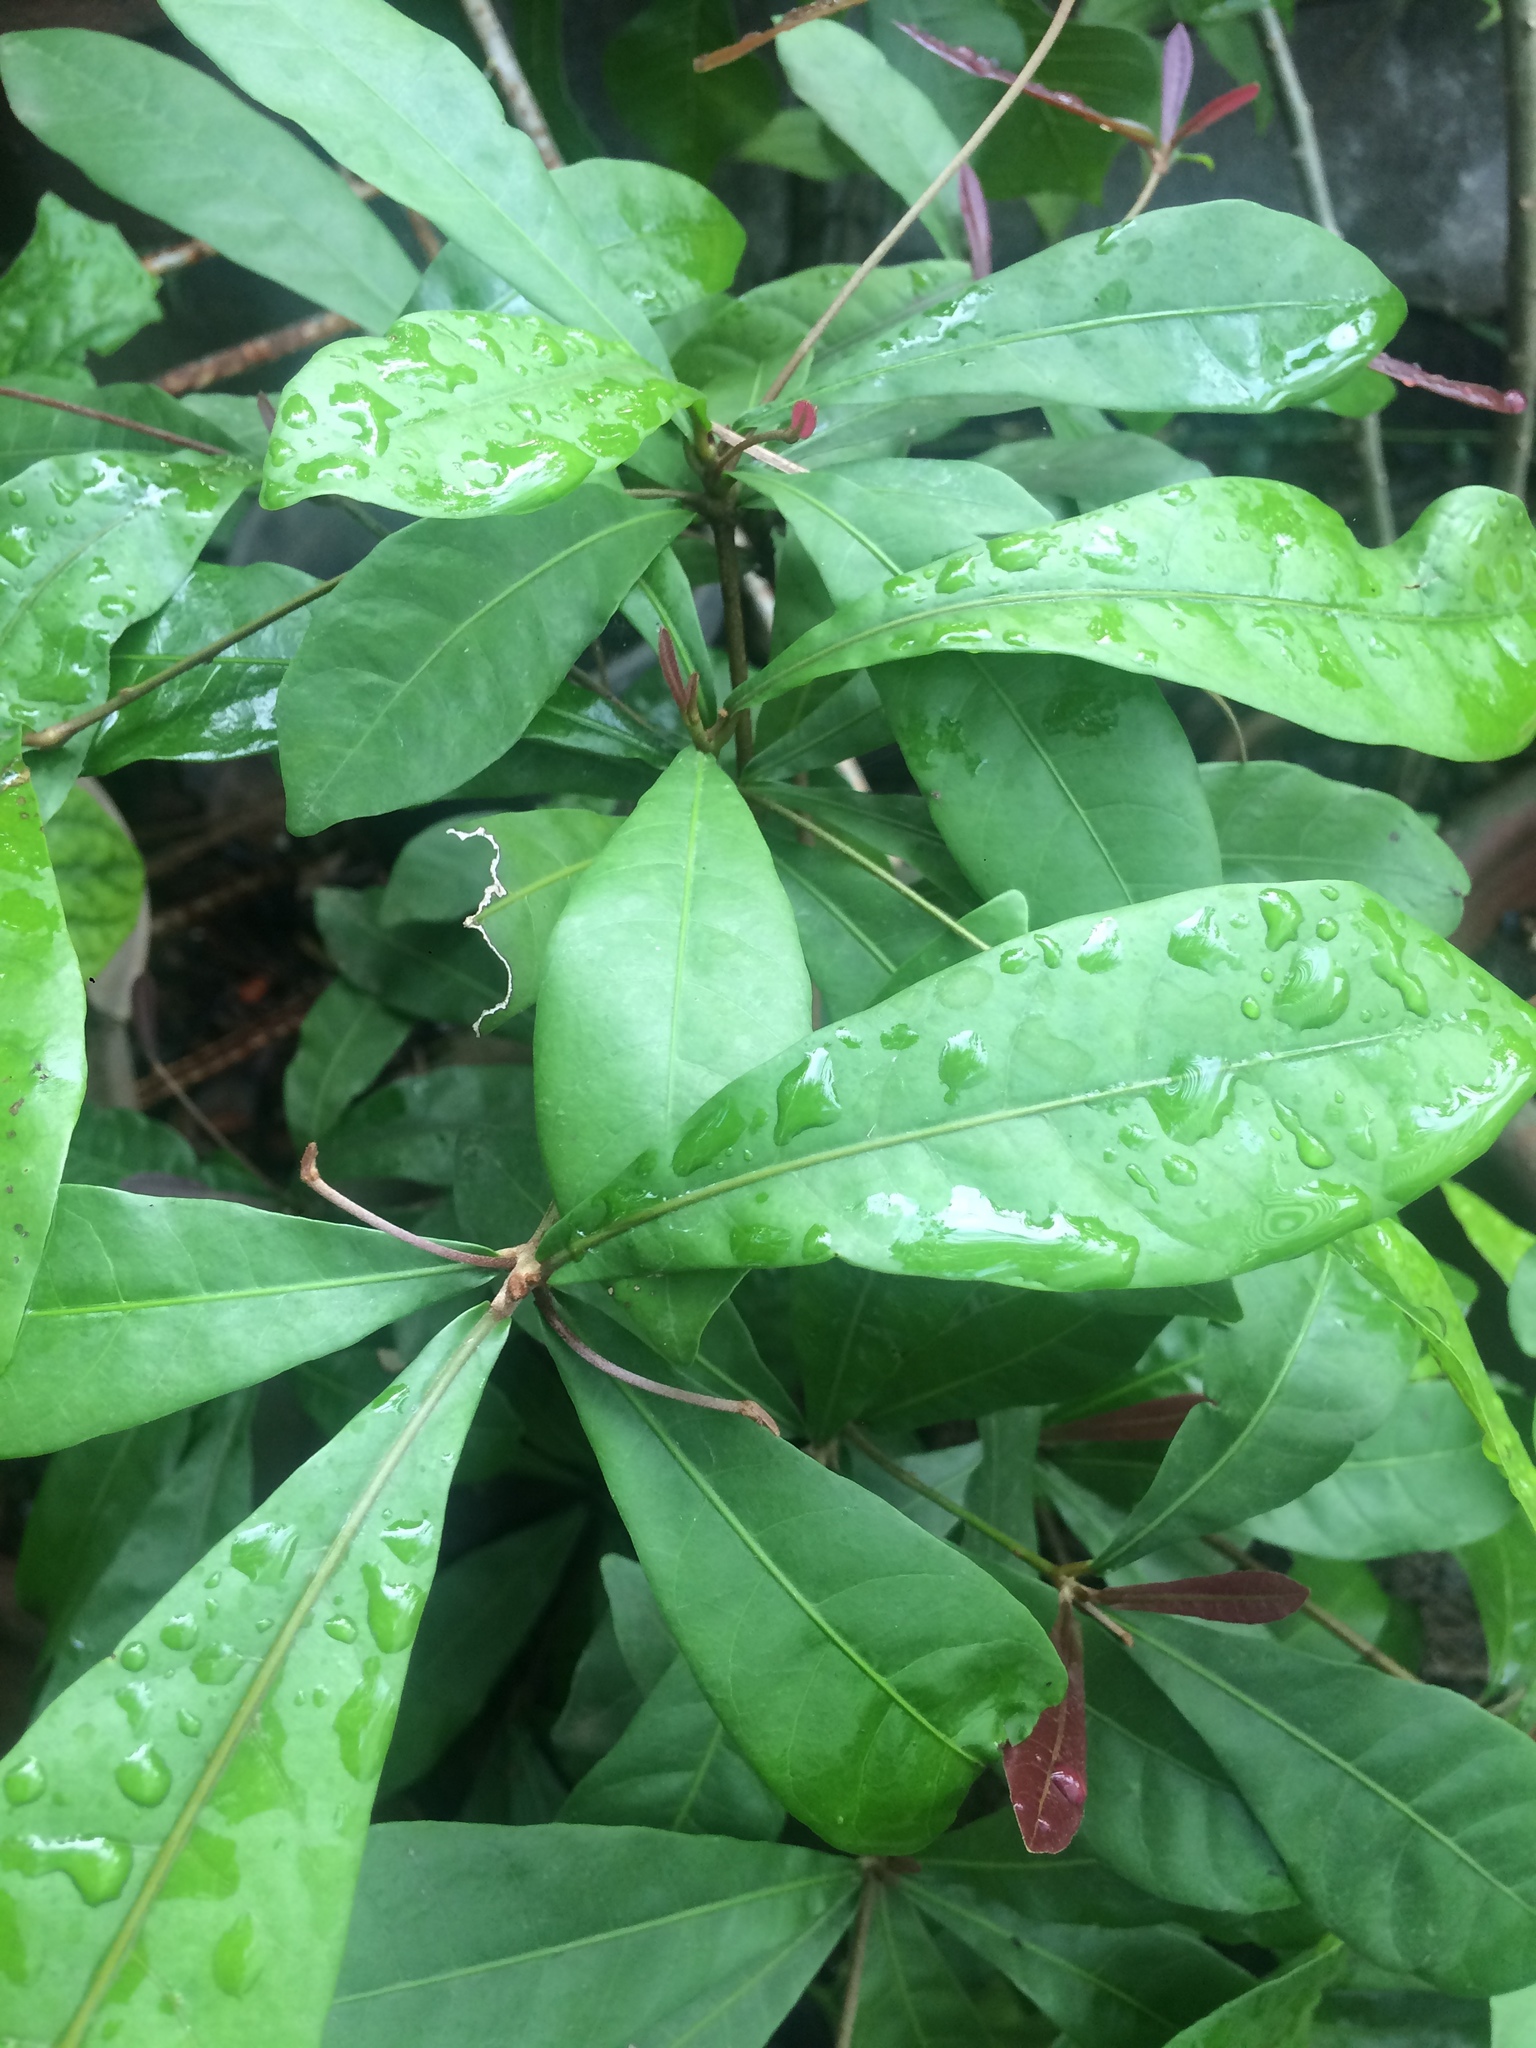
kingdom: Plantae
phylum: Tracheophyta
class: Magnoliopsida
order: Ericales
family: Sapotaceae
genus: Synsepalum
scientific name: Synsepalum dulcificum
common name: Miracle-fruit
